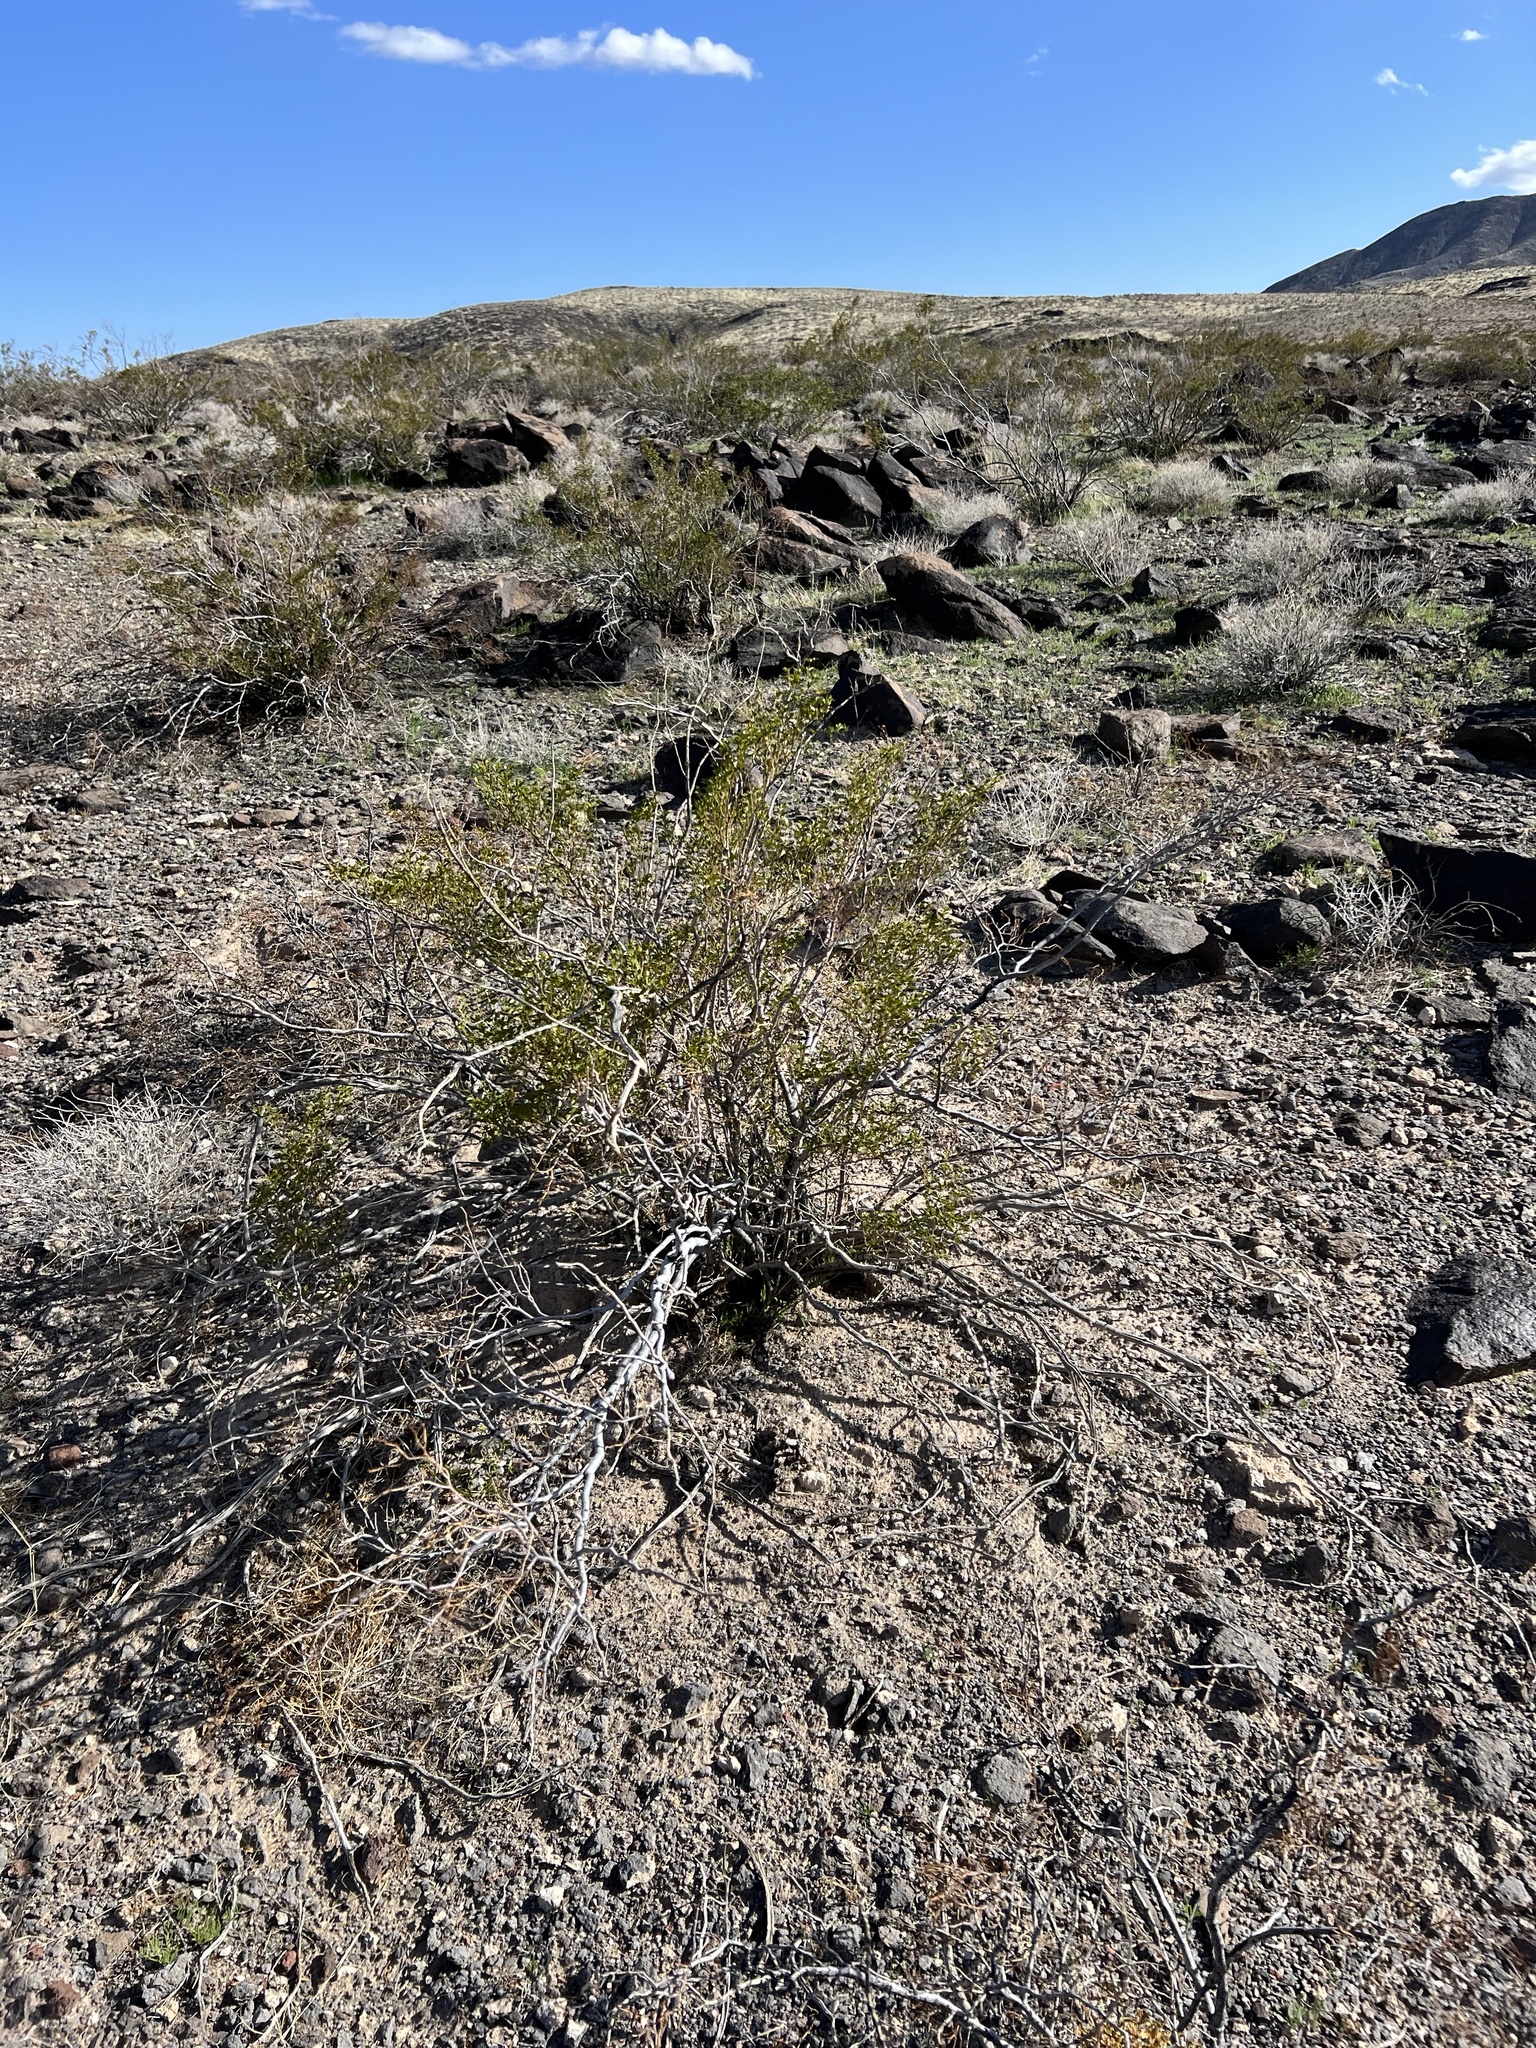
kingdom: Plantae
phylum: Tracheophyta
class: Magnoliopsida
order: Zygophyllales
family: Zygophyllaceae
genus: Larrea
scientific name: Larrea tridentata
